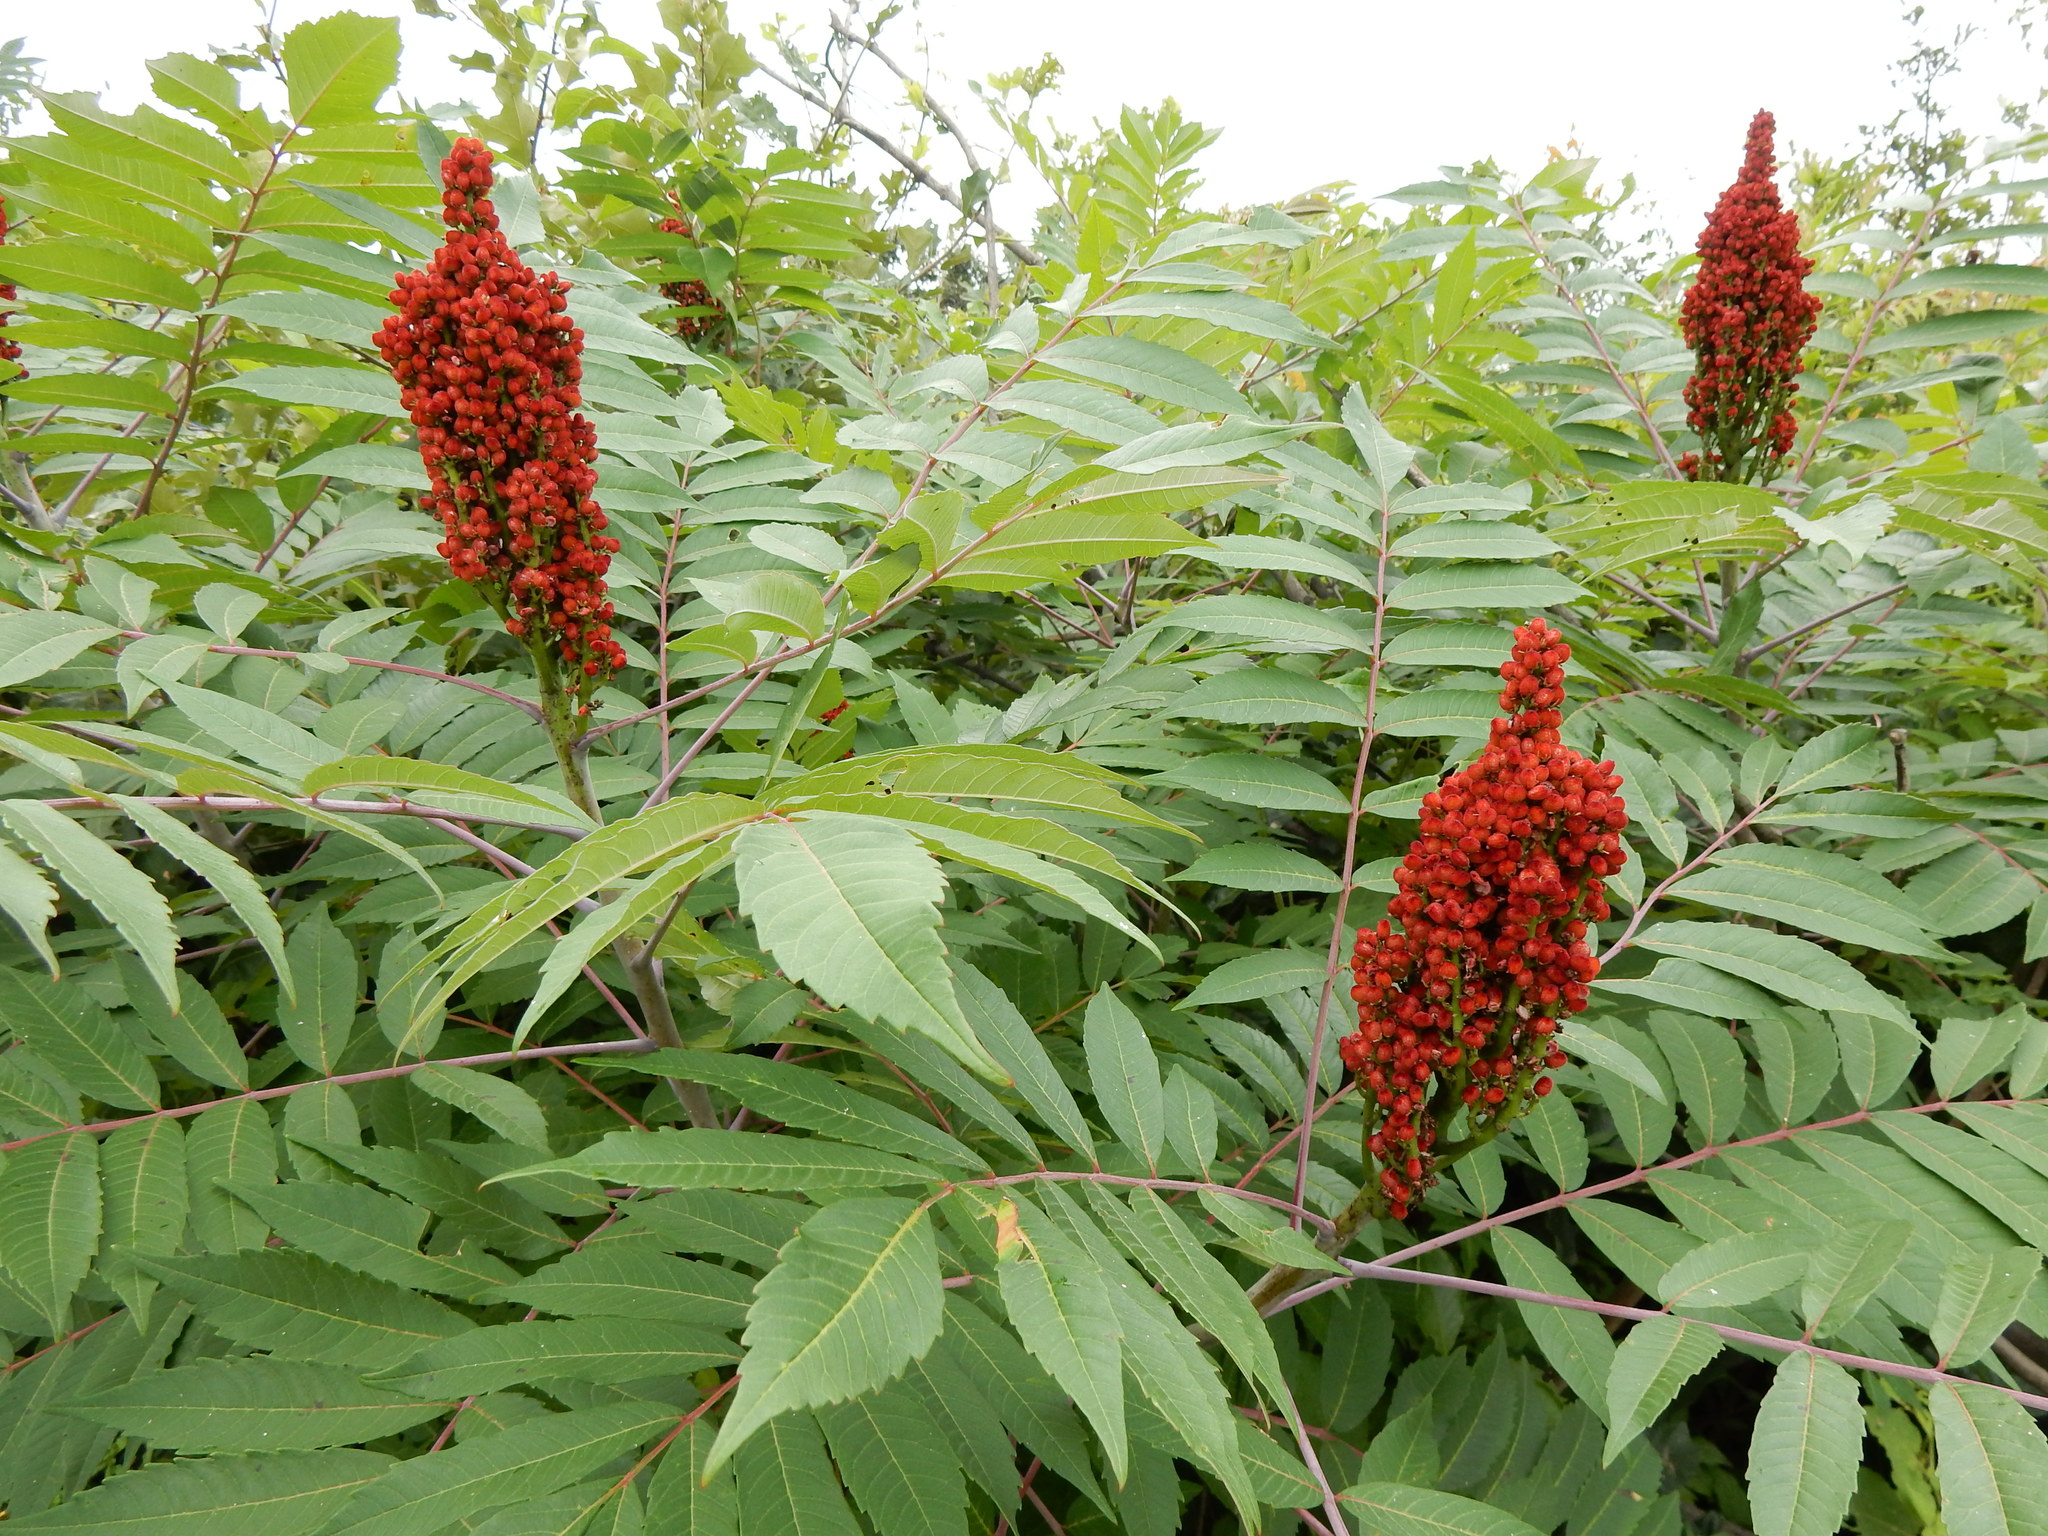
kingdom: Plantae
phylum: Tracheophyta
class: Magnoliopsida
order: Sapindales
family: Anacardiaceae
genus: Rhus
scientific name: Rhus glabra
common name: Scarlet sumac
